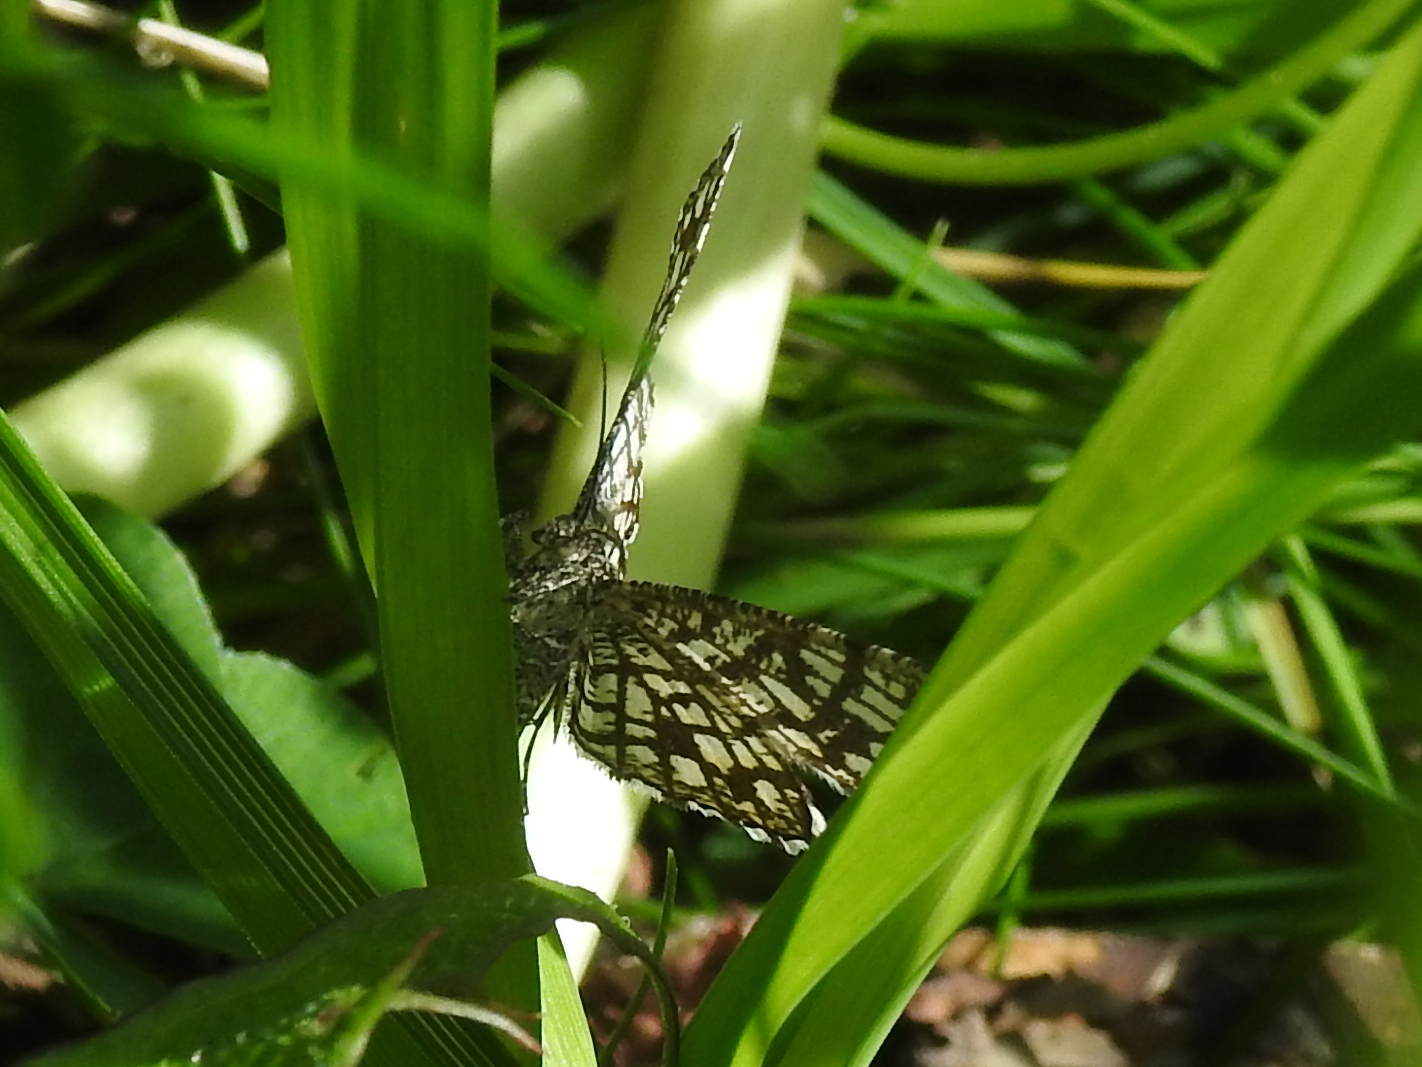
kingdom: Animalia
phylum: Arthropoda
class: Insecta
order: Lepidoptera
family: Geometridae
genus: Chiasmia
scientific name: Chiasmia clathrata
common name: Latticed heath
